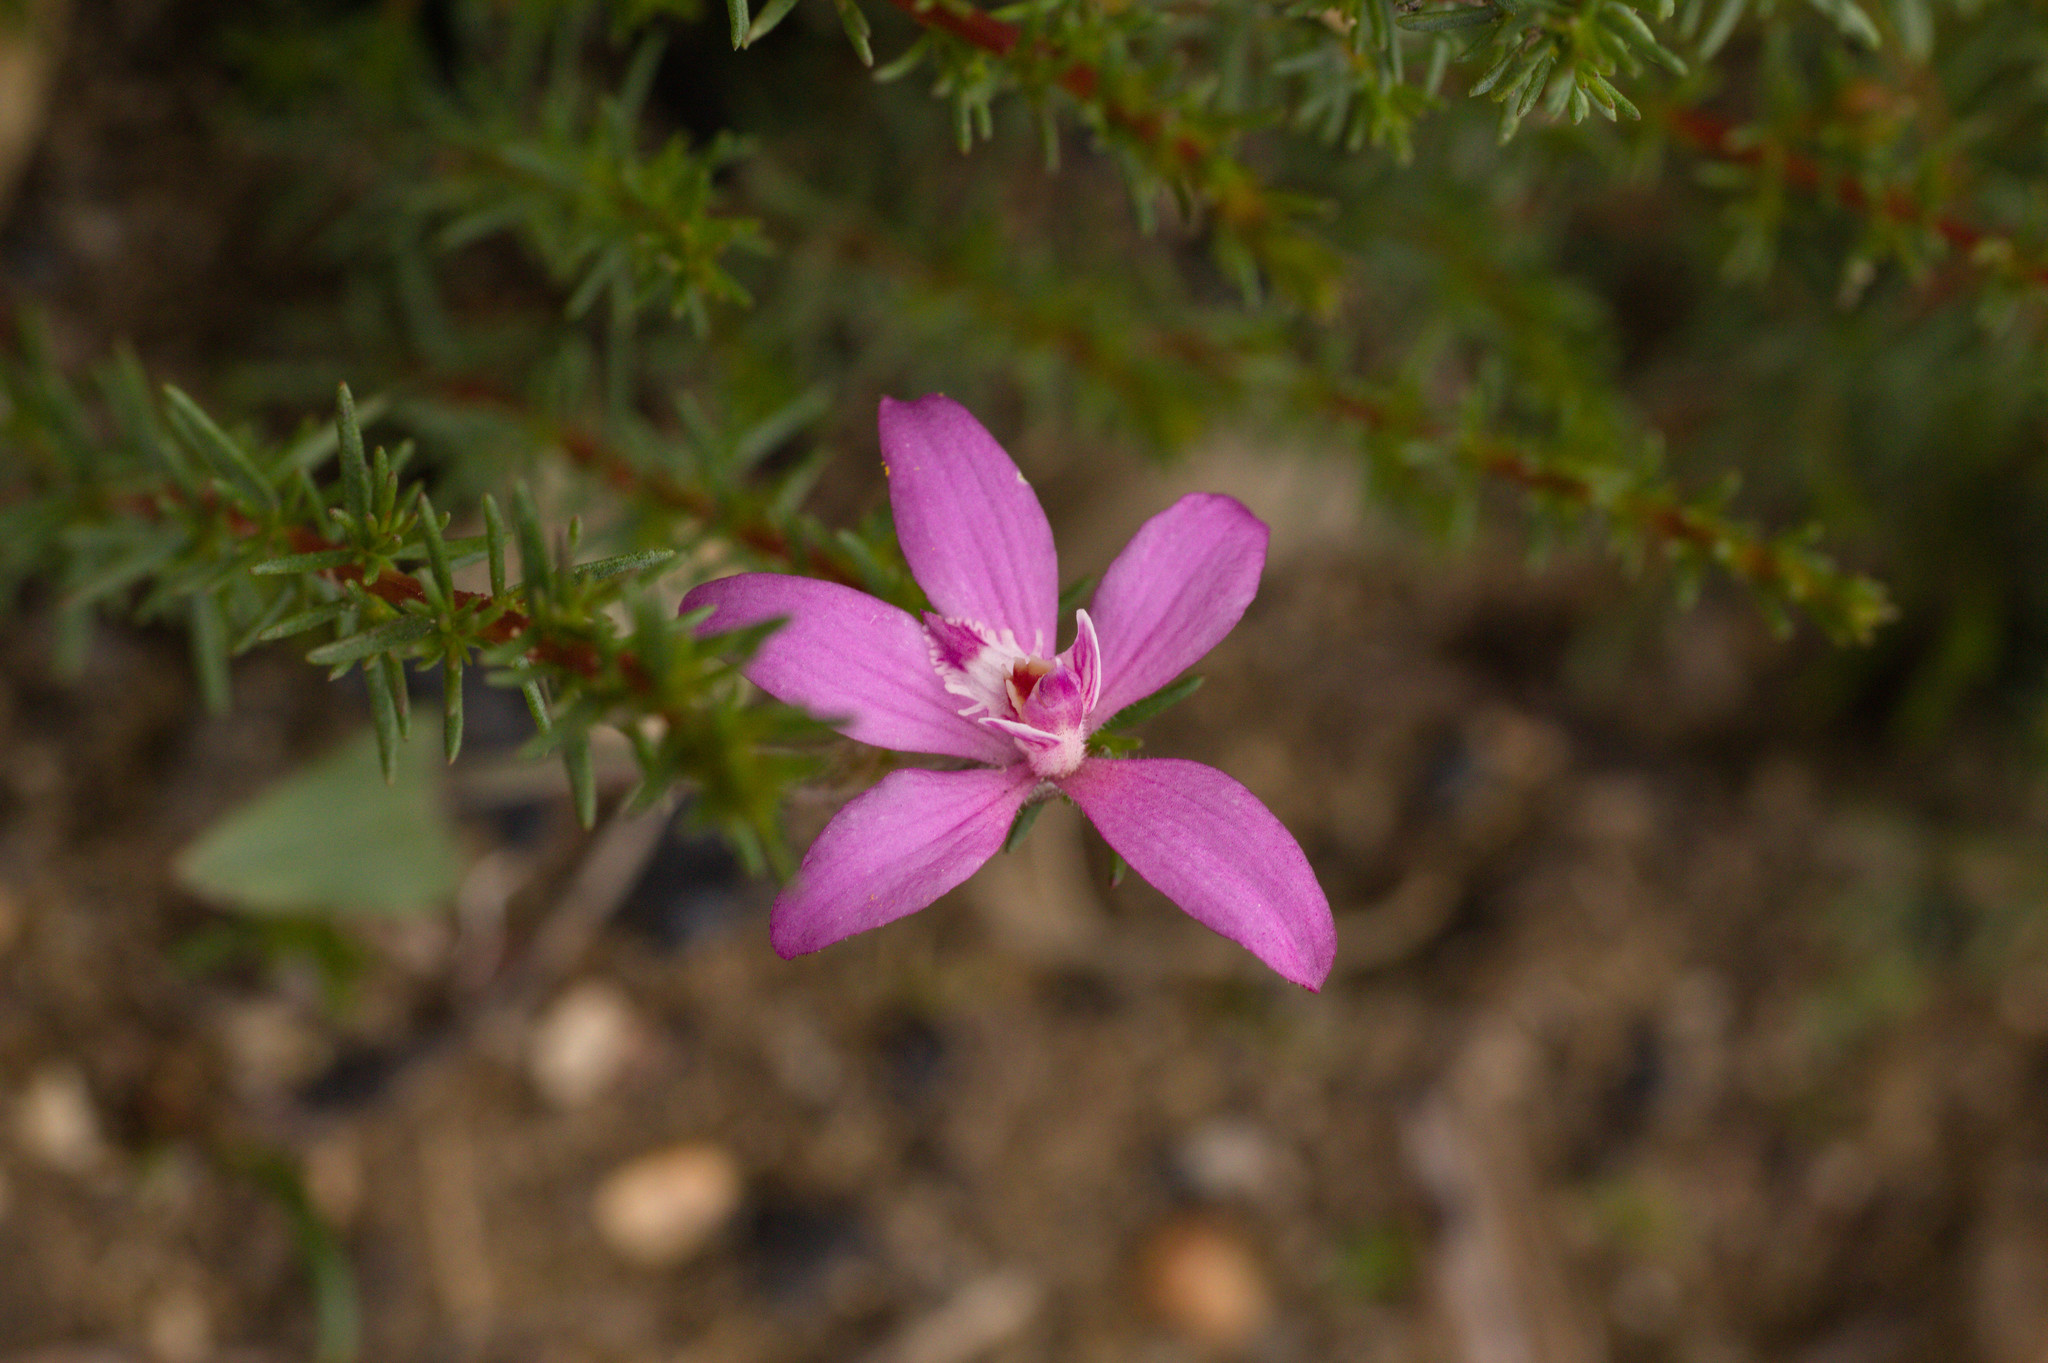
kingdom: Plantae
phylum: Tracheophyta
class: Liliopsida
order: Asparagales
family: Orchidaceae
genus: Caladenia
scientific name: Caladenia reptans
